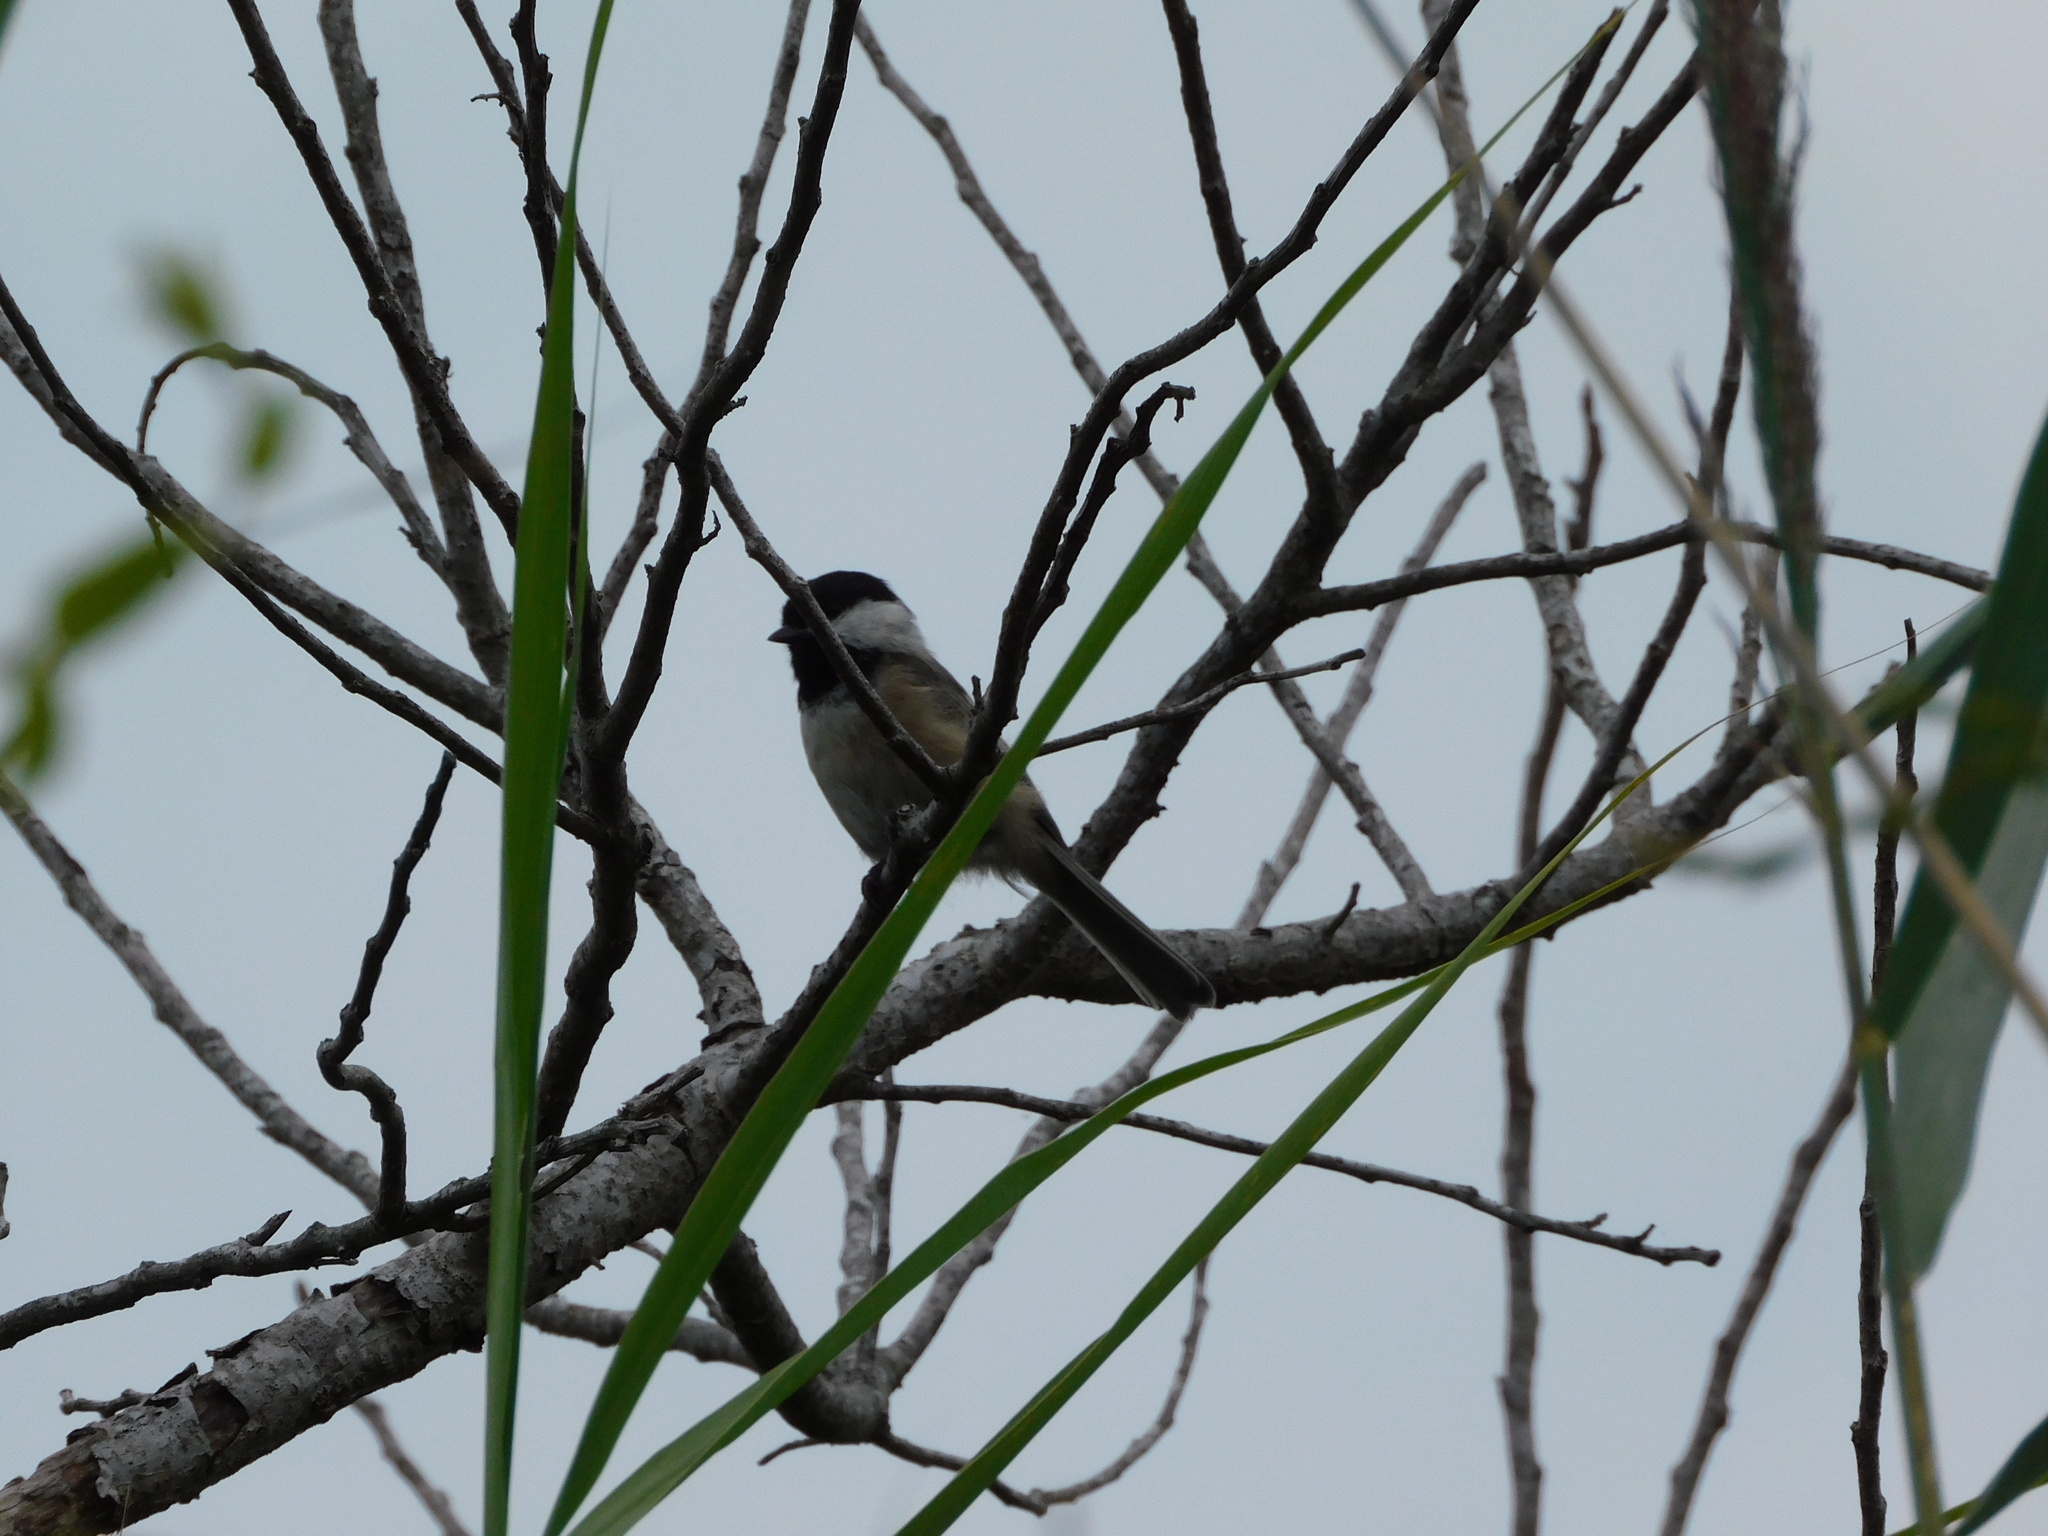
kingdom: Animalia
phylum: Chordata
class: Aves
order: Passeriformes
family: Paridae
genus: Poecile
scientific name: Poecile carolinensis
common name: Carolina chickadee
